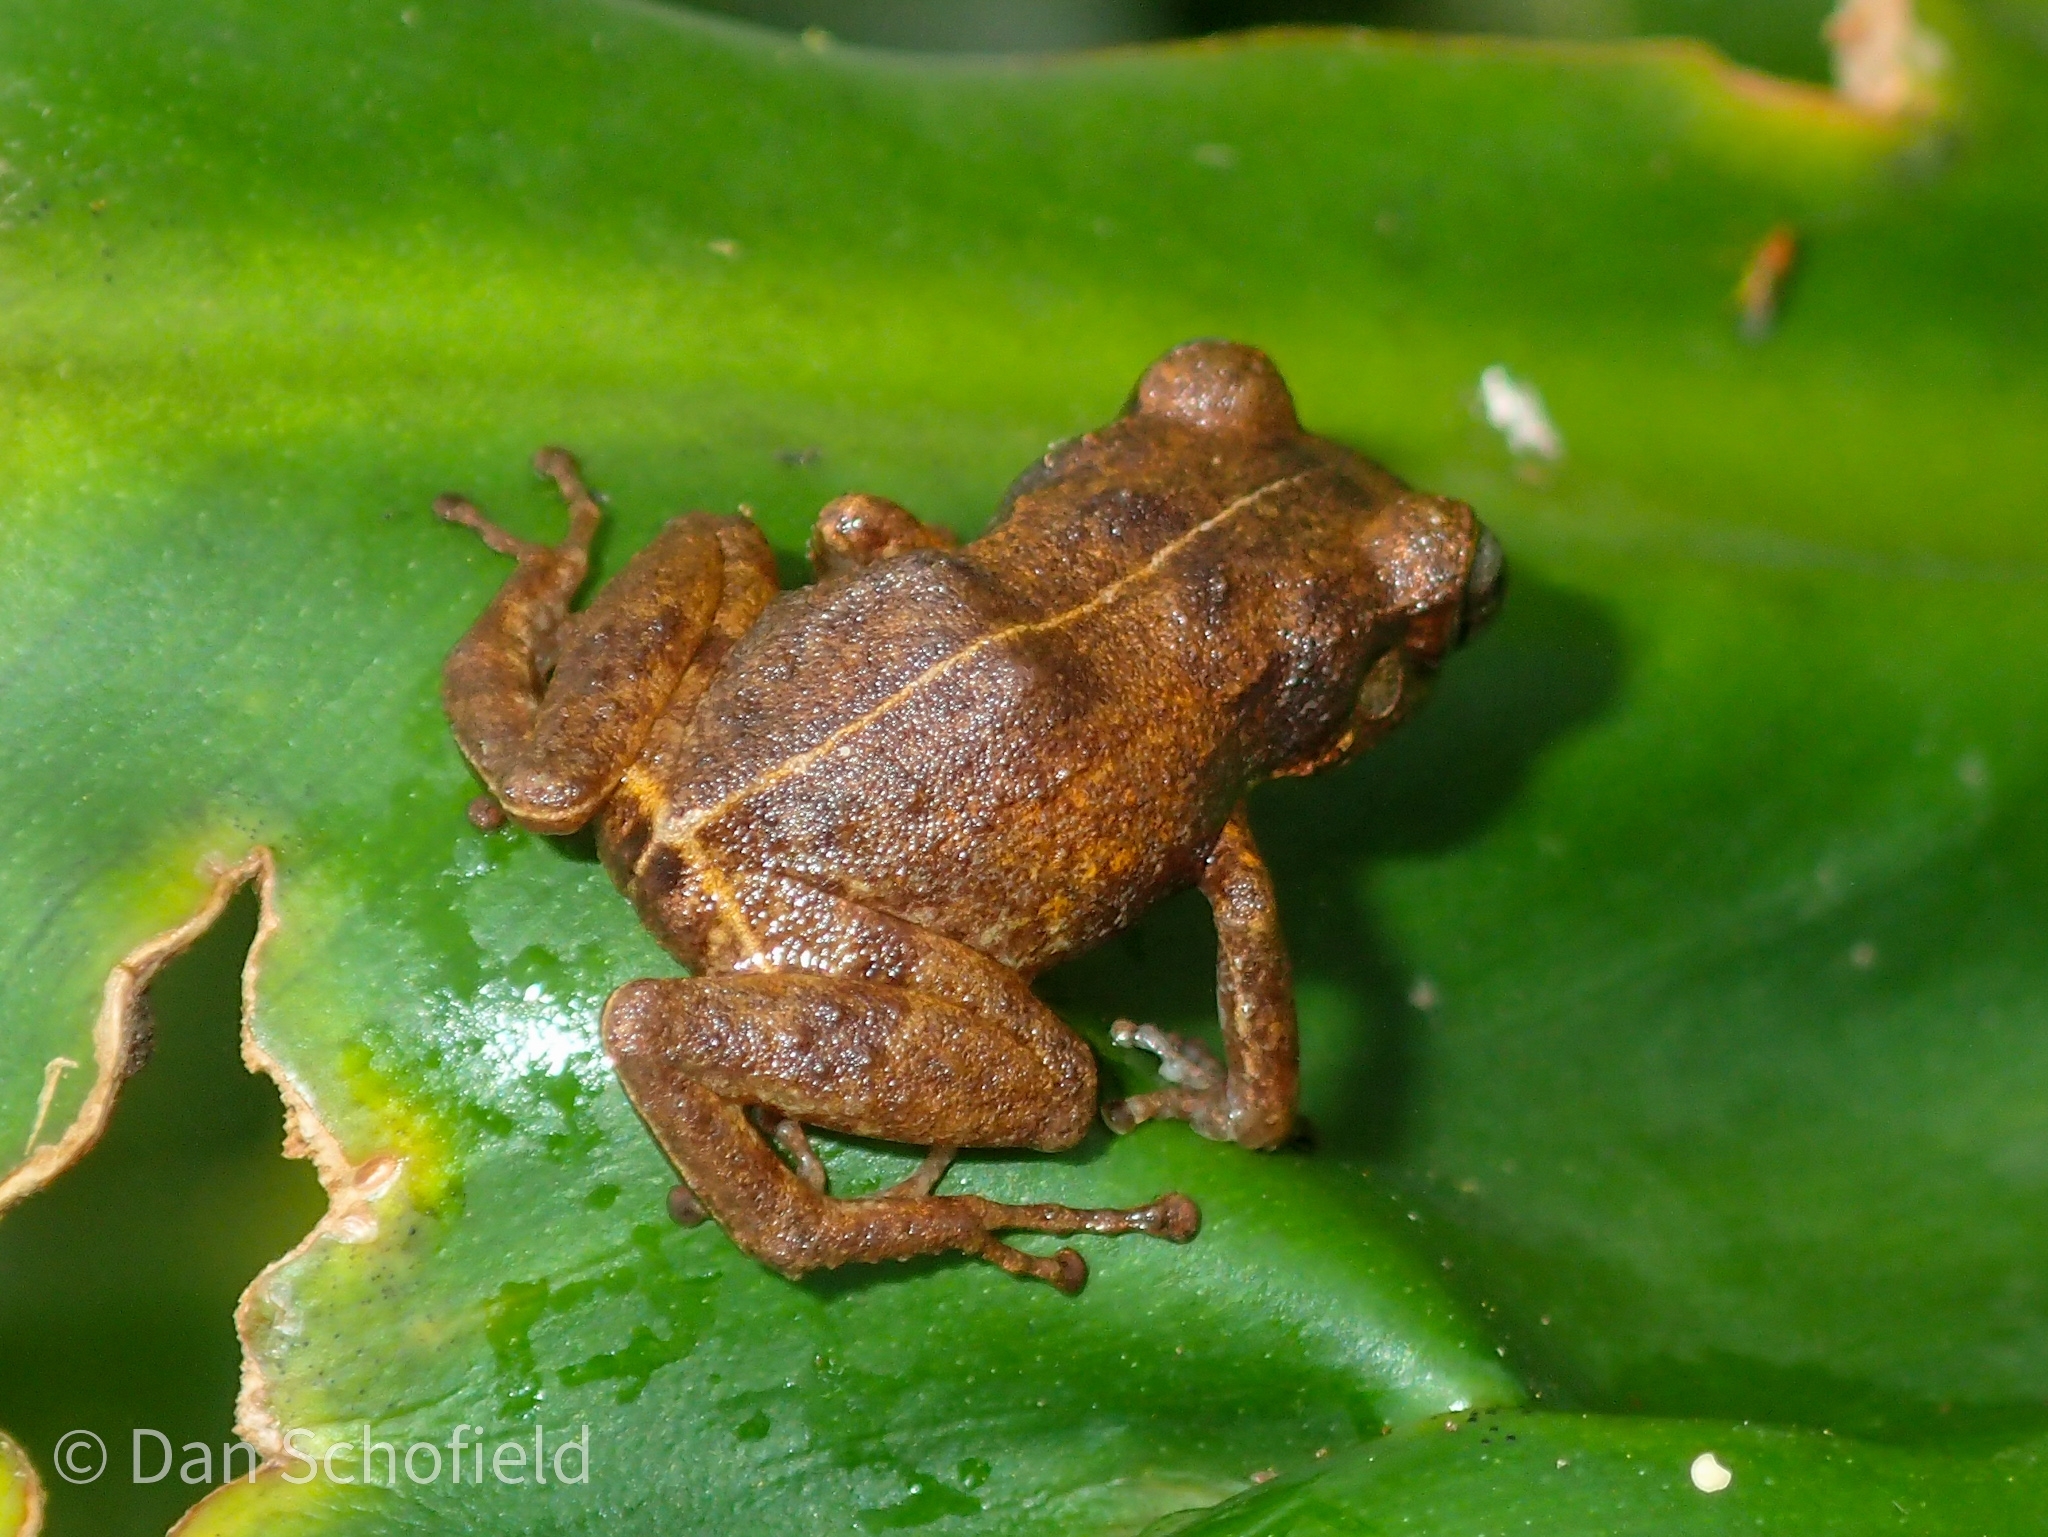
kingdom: Animalia
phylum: Chordata
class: Amphibia
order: Anura
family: Eleutherodactylidae
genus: Eleutherodactylus
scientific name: Eleutherodactylus montserratae
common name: Montserrat whistling frog
